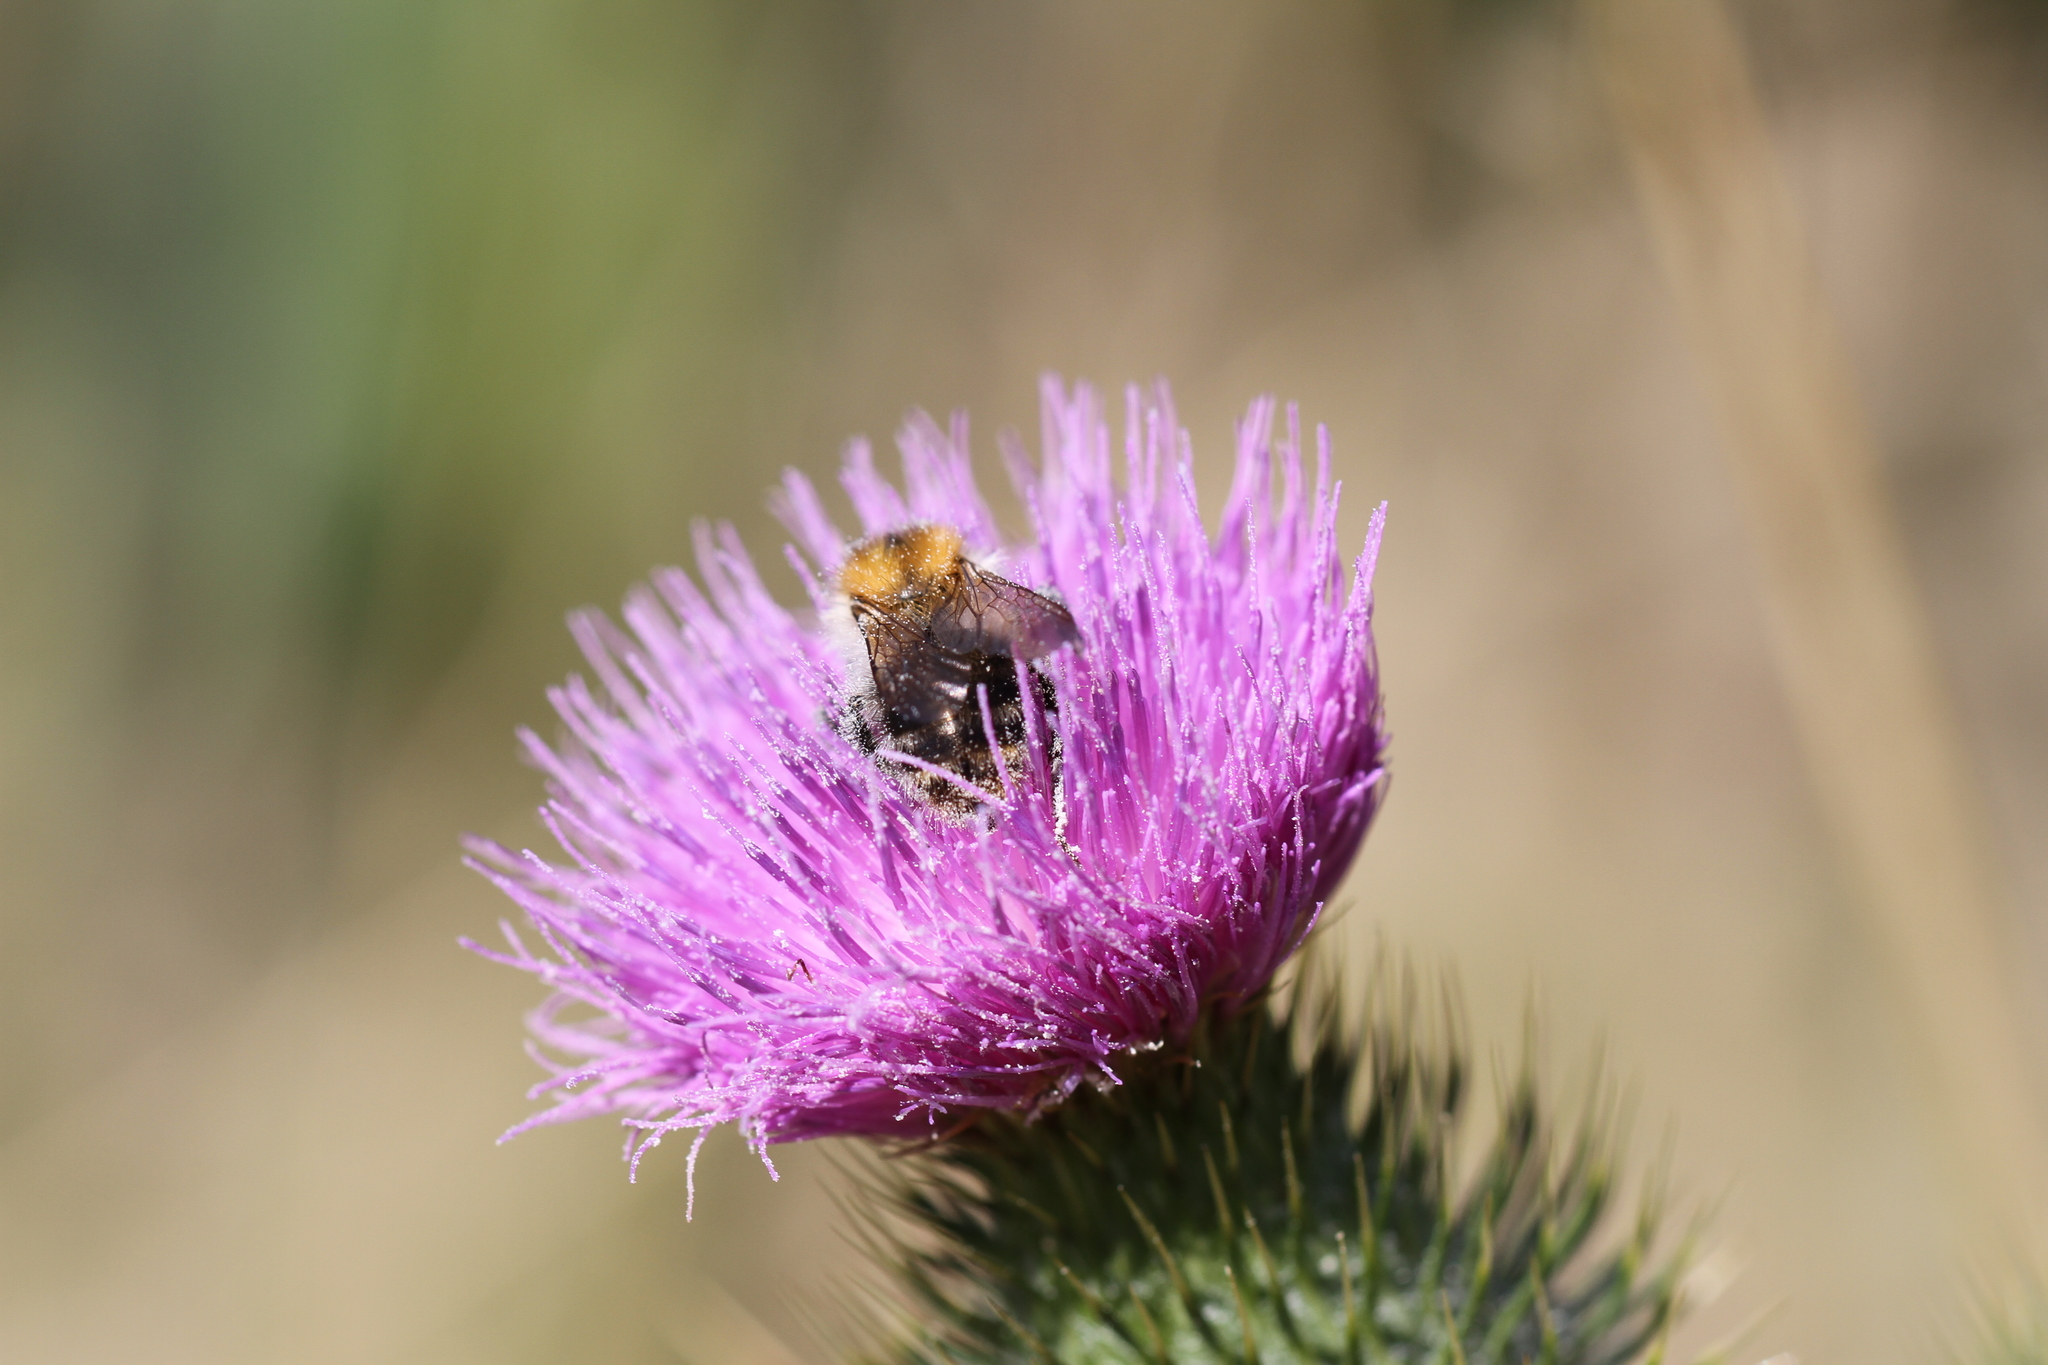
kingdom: Animalia
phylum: Arthropoda
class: Insecta
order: Hymenoptera
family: Apidae
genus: Bombus
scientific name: Bombus pascuorum
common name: Common carder bee
